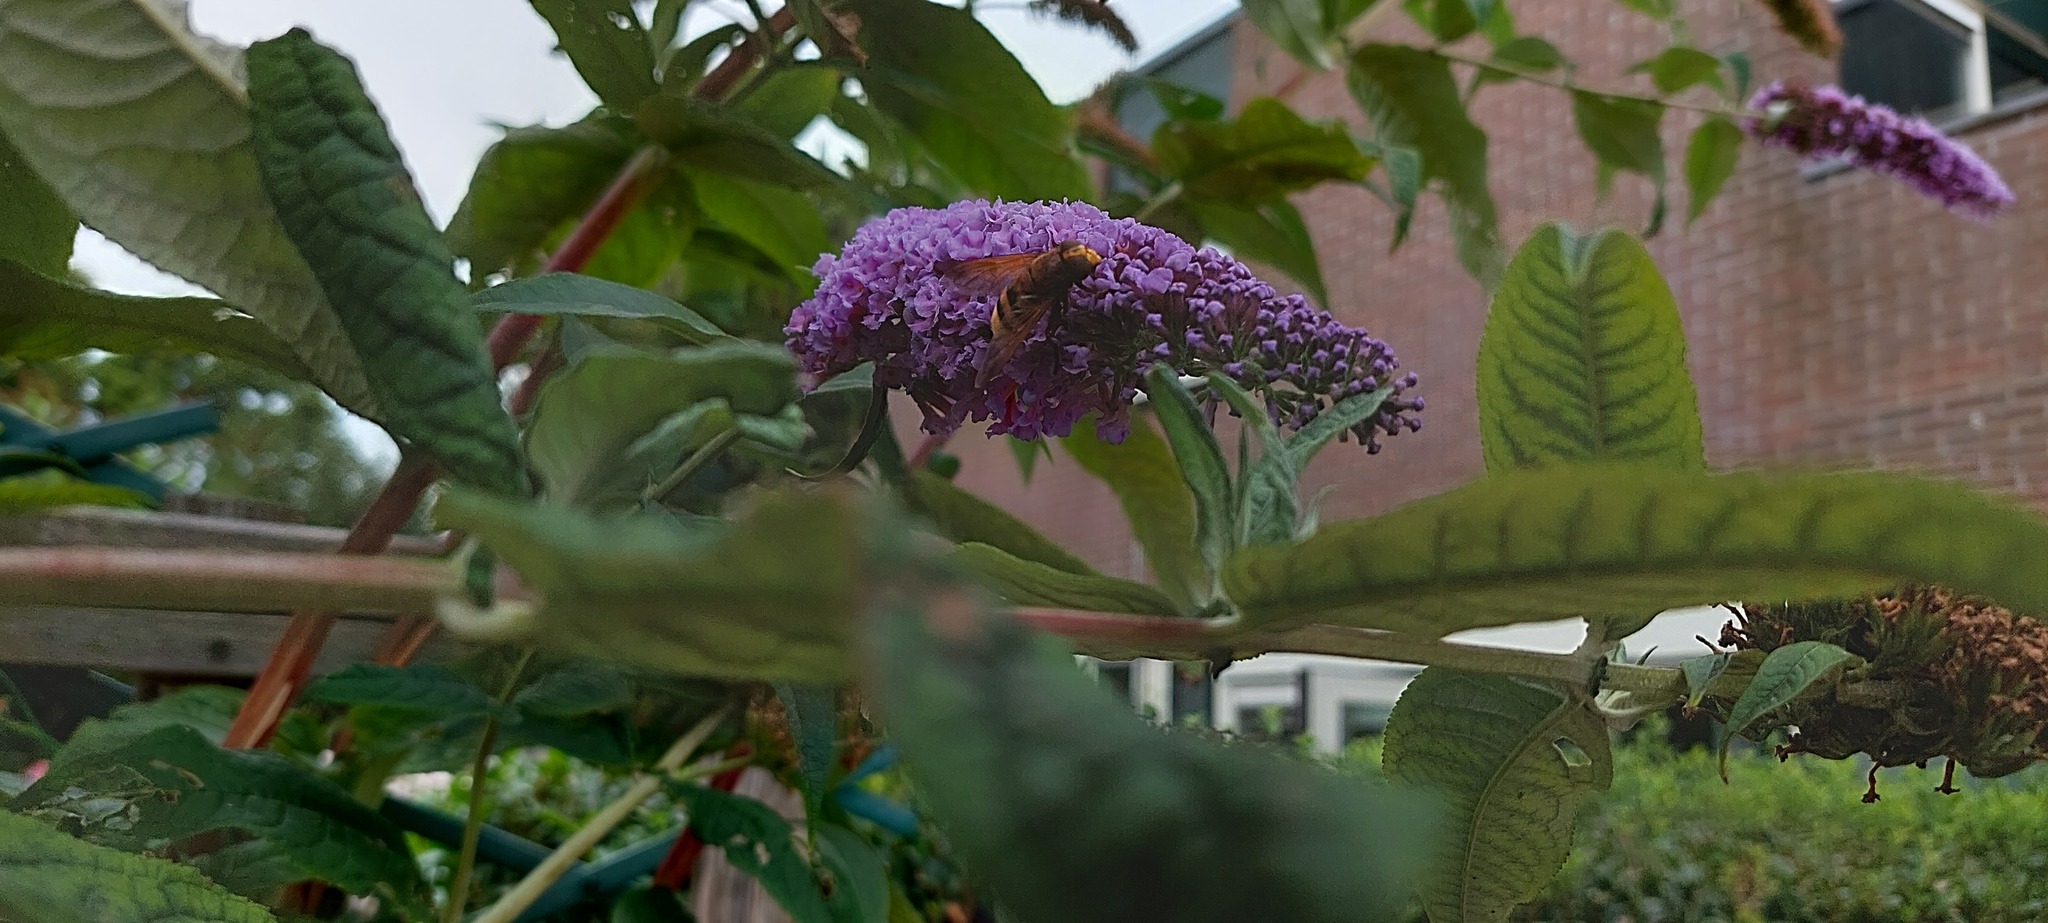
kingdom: Animalia
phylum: Arthropoda
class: Insecta
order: Diptera
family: Syrphidae
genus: Volucella
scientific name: Volucella zonaria
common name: Hornet hoverfly
